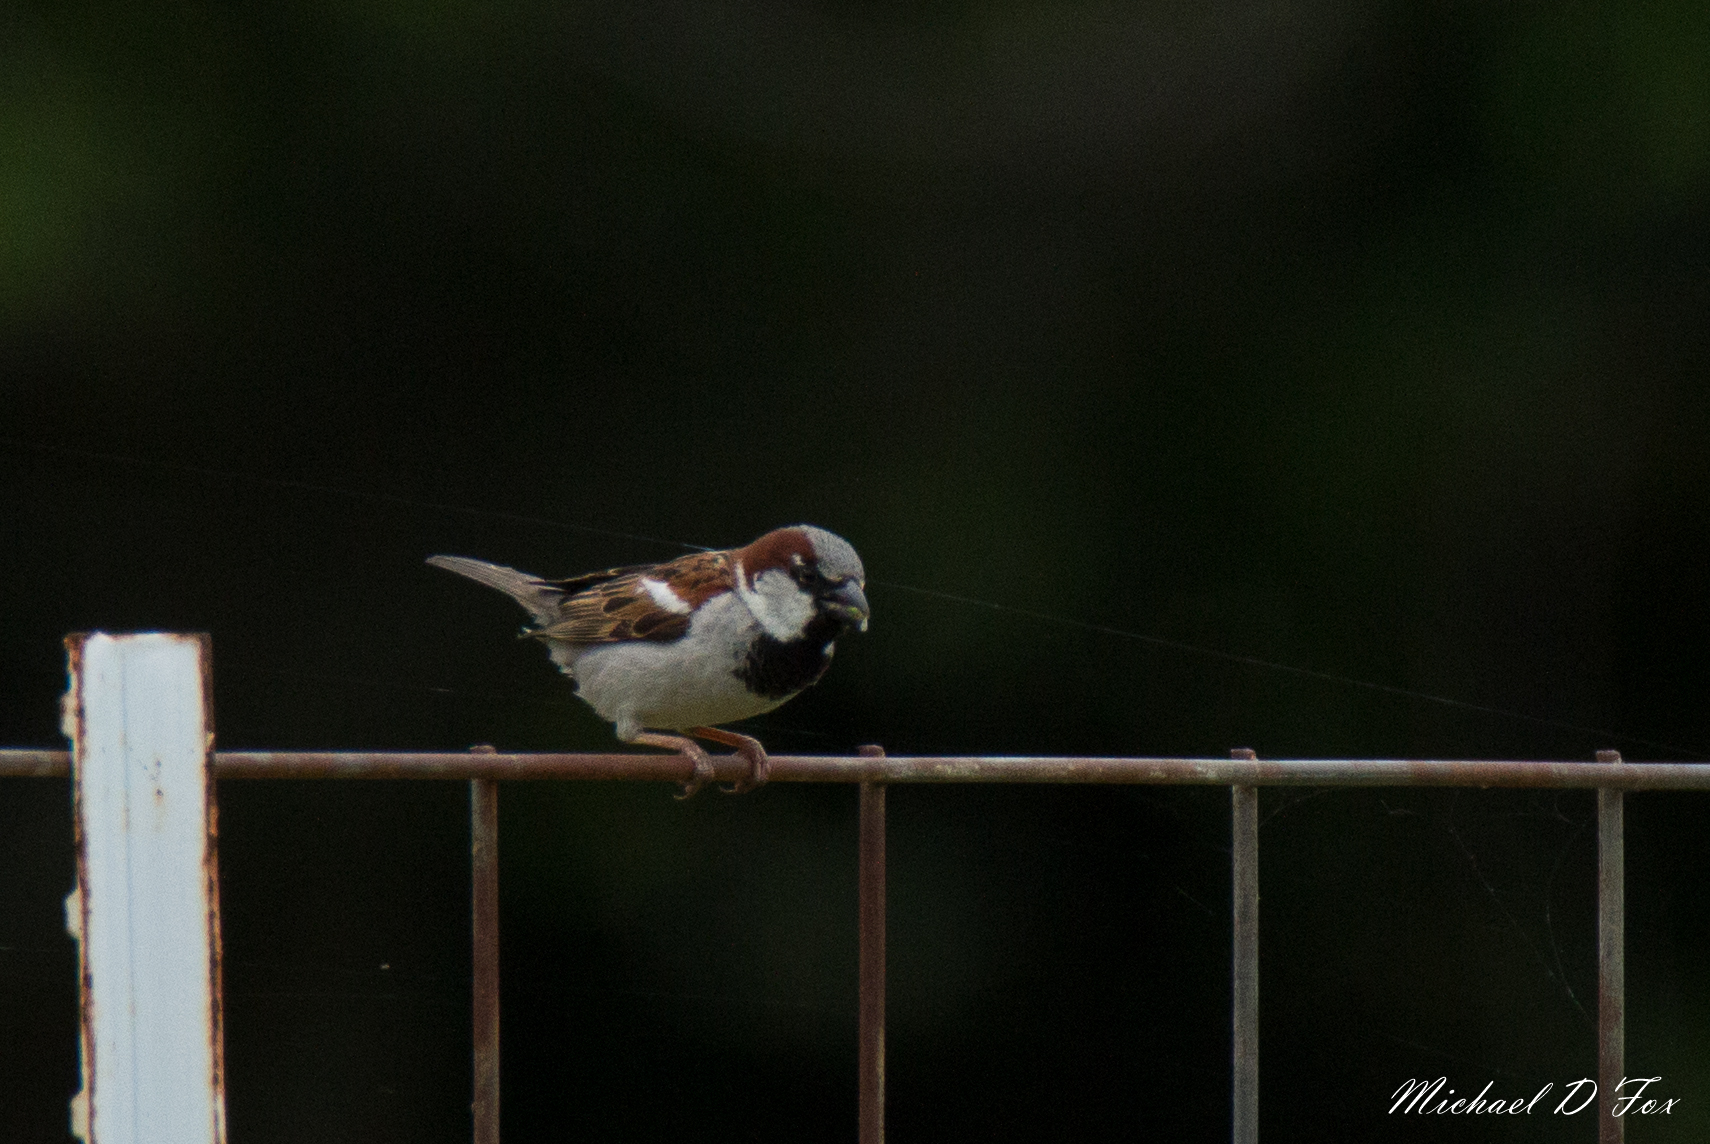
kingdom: Animalia
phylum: Chordata
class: Aves
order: Passeriformes
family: Passeridae
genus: Passer
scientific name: Passer domesticus
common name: House sparrow
